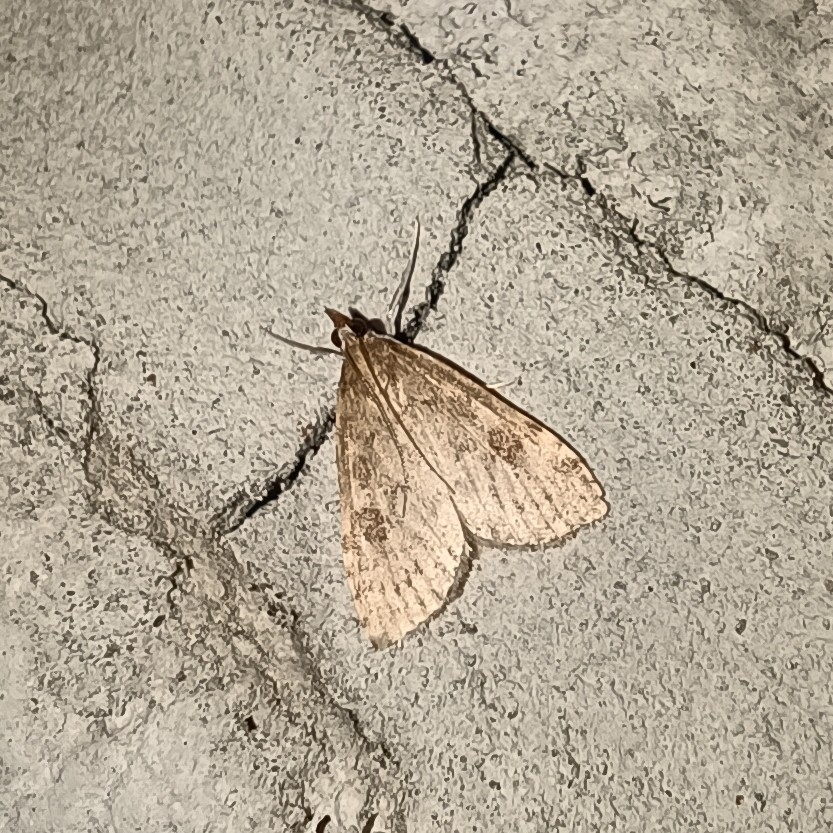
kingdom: Animalia
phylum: Arthropoda
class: Insecta
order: Lepidoptera
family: Crambidae
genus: Udea
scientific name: Udea prunalis
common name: Dusky pearl
